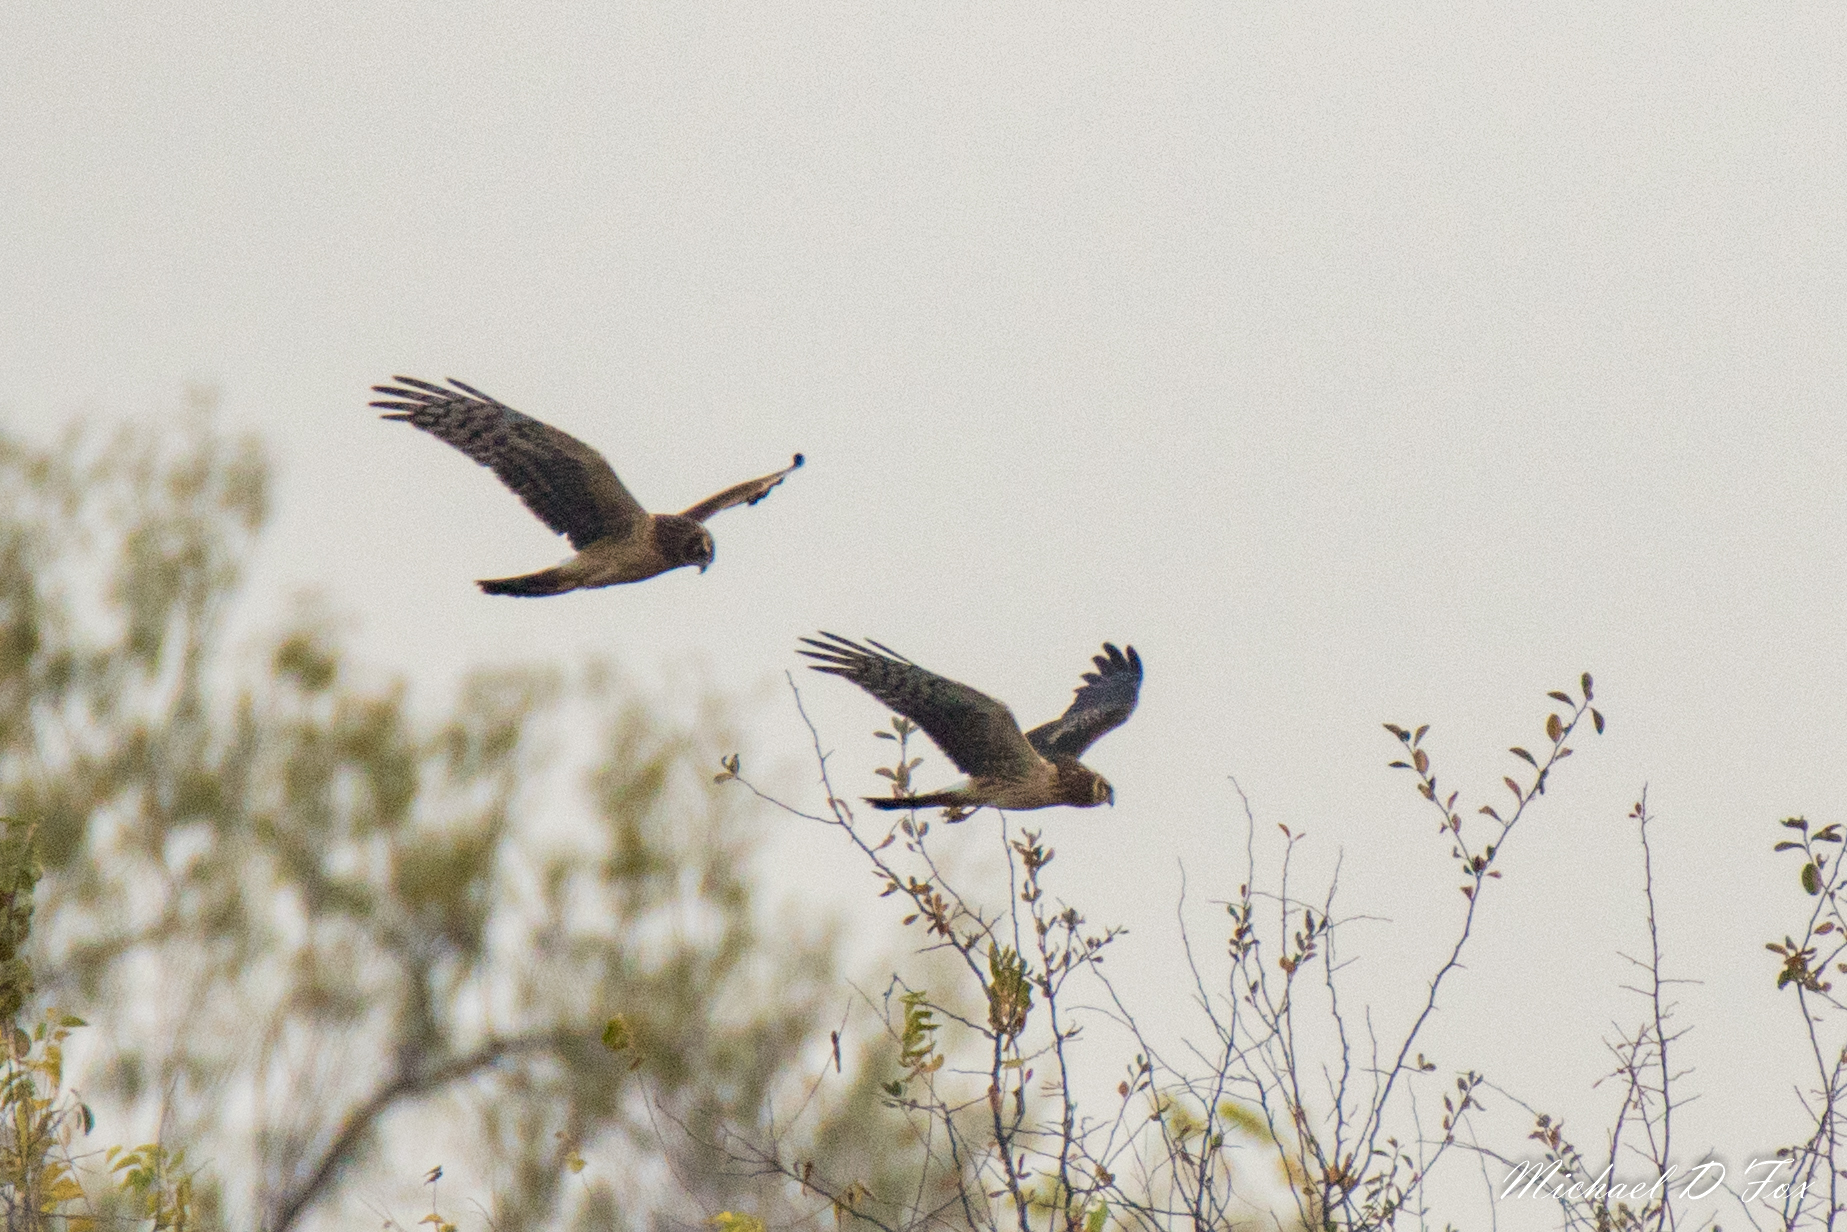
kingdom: Animalia
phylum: Chordata
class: Aves
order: Accipitriformes
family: Accipitridae
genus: Circus
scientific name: Circus cyaneus
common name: Hen harrier
